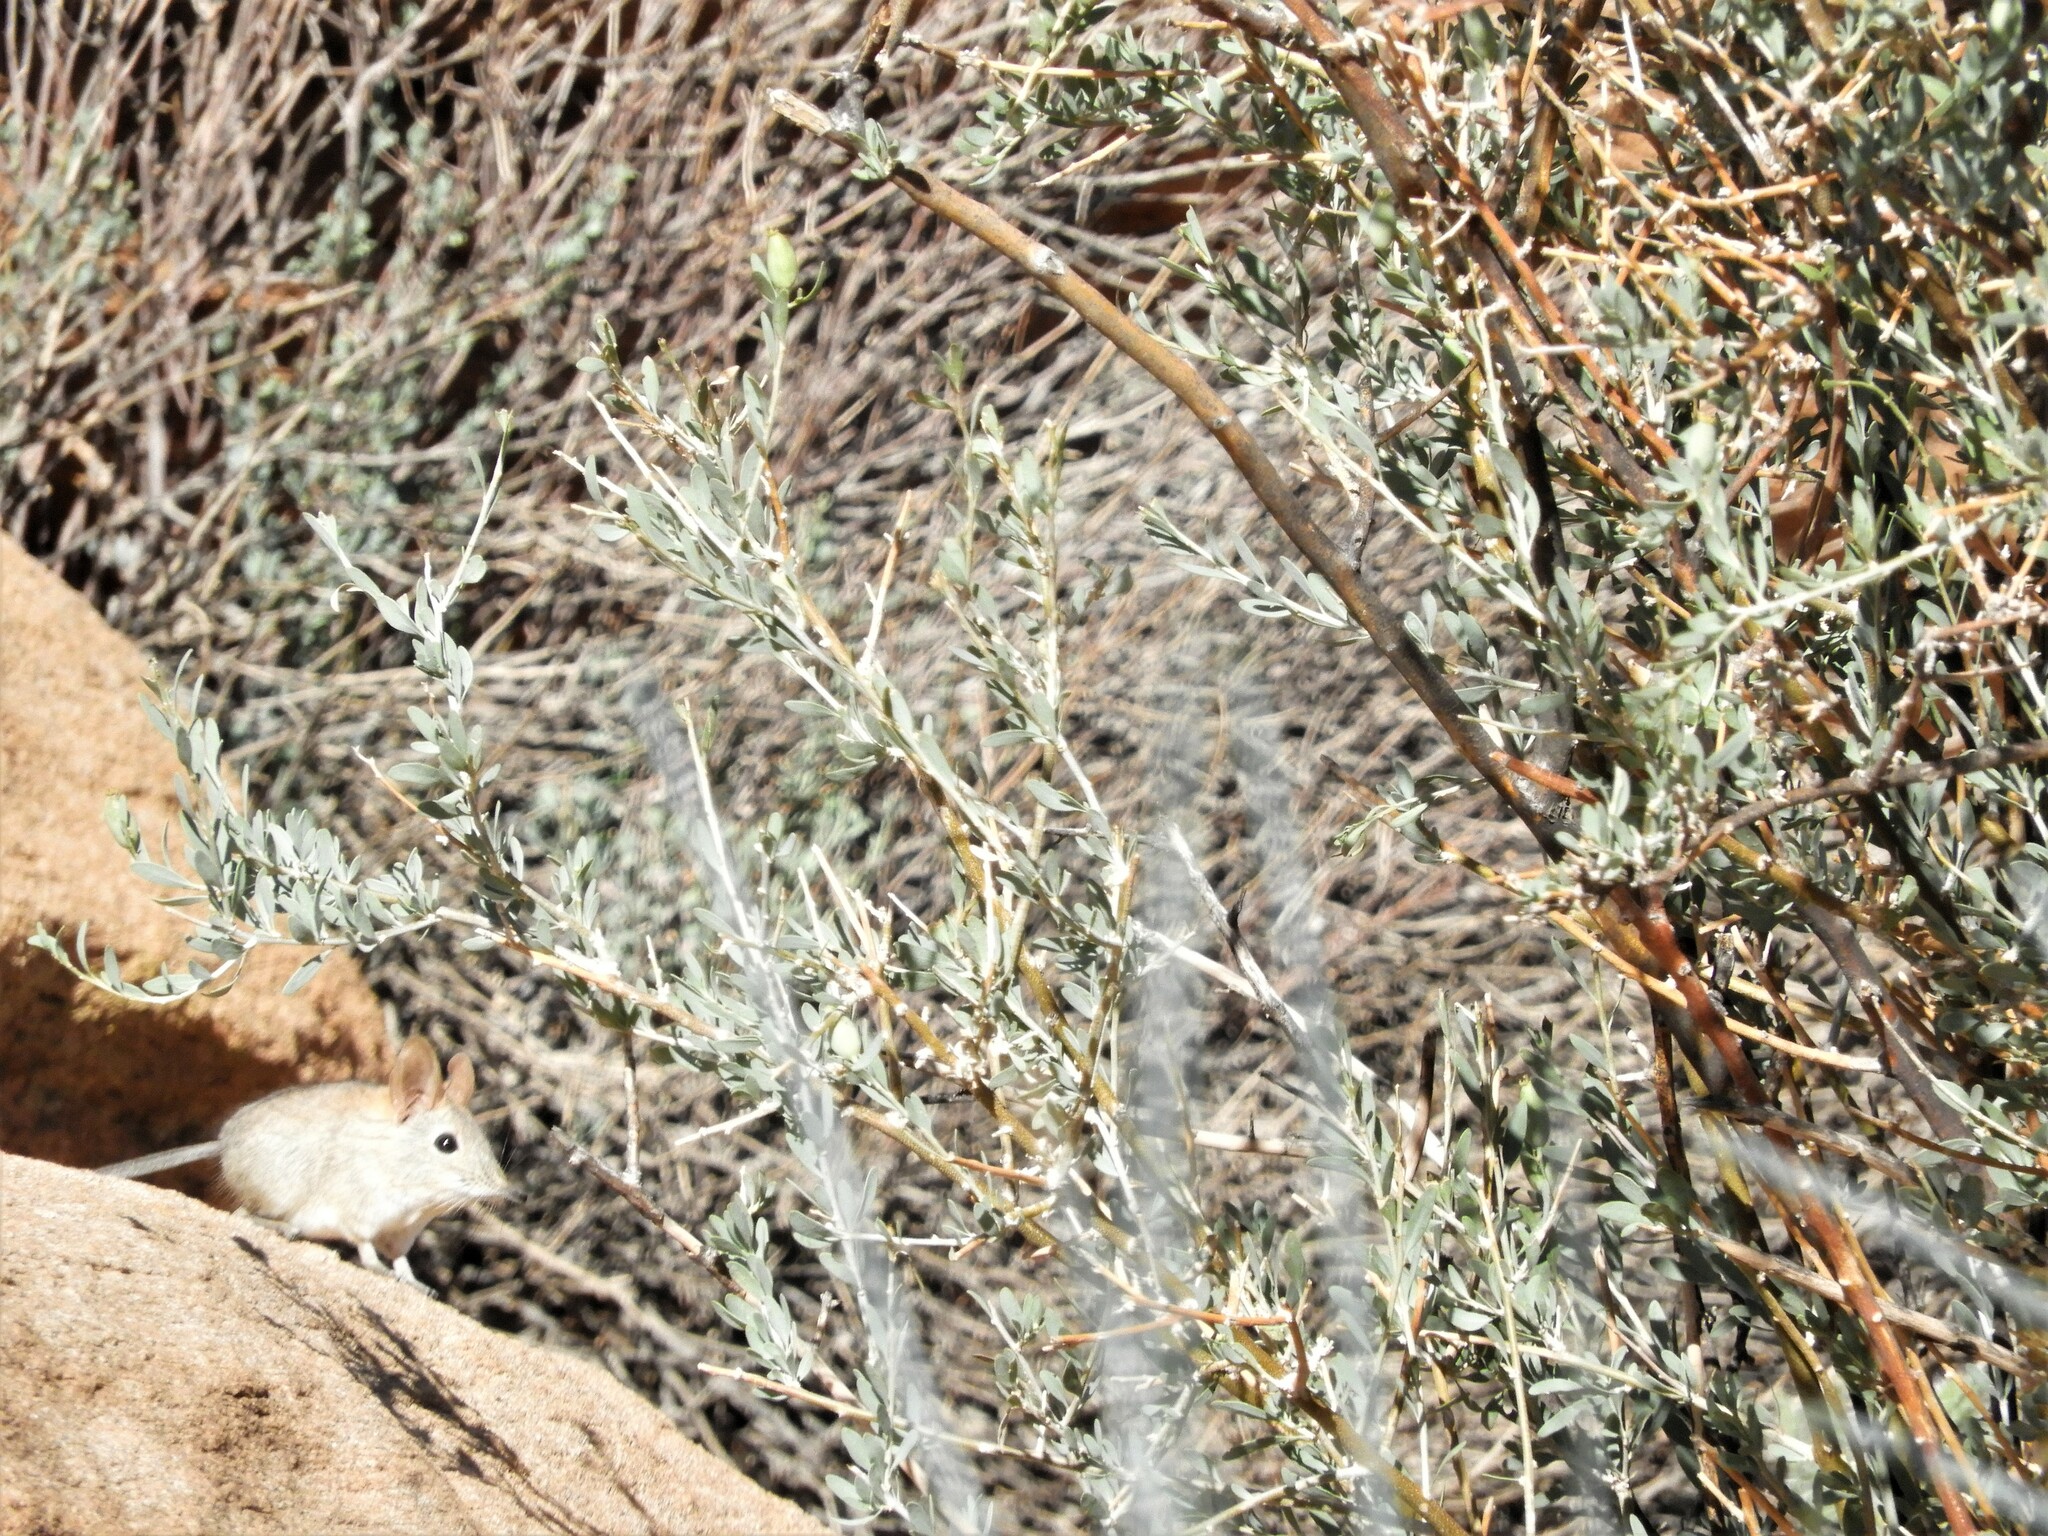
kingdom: Animalia
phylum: Chordata
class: Mammalia
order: Macroscelidea
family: Macroscelididae
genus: Elephantulus
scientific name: Elephantulus rupestris
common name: Western rock elephant shrew
